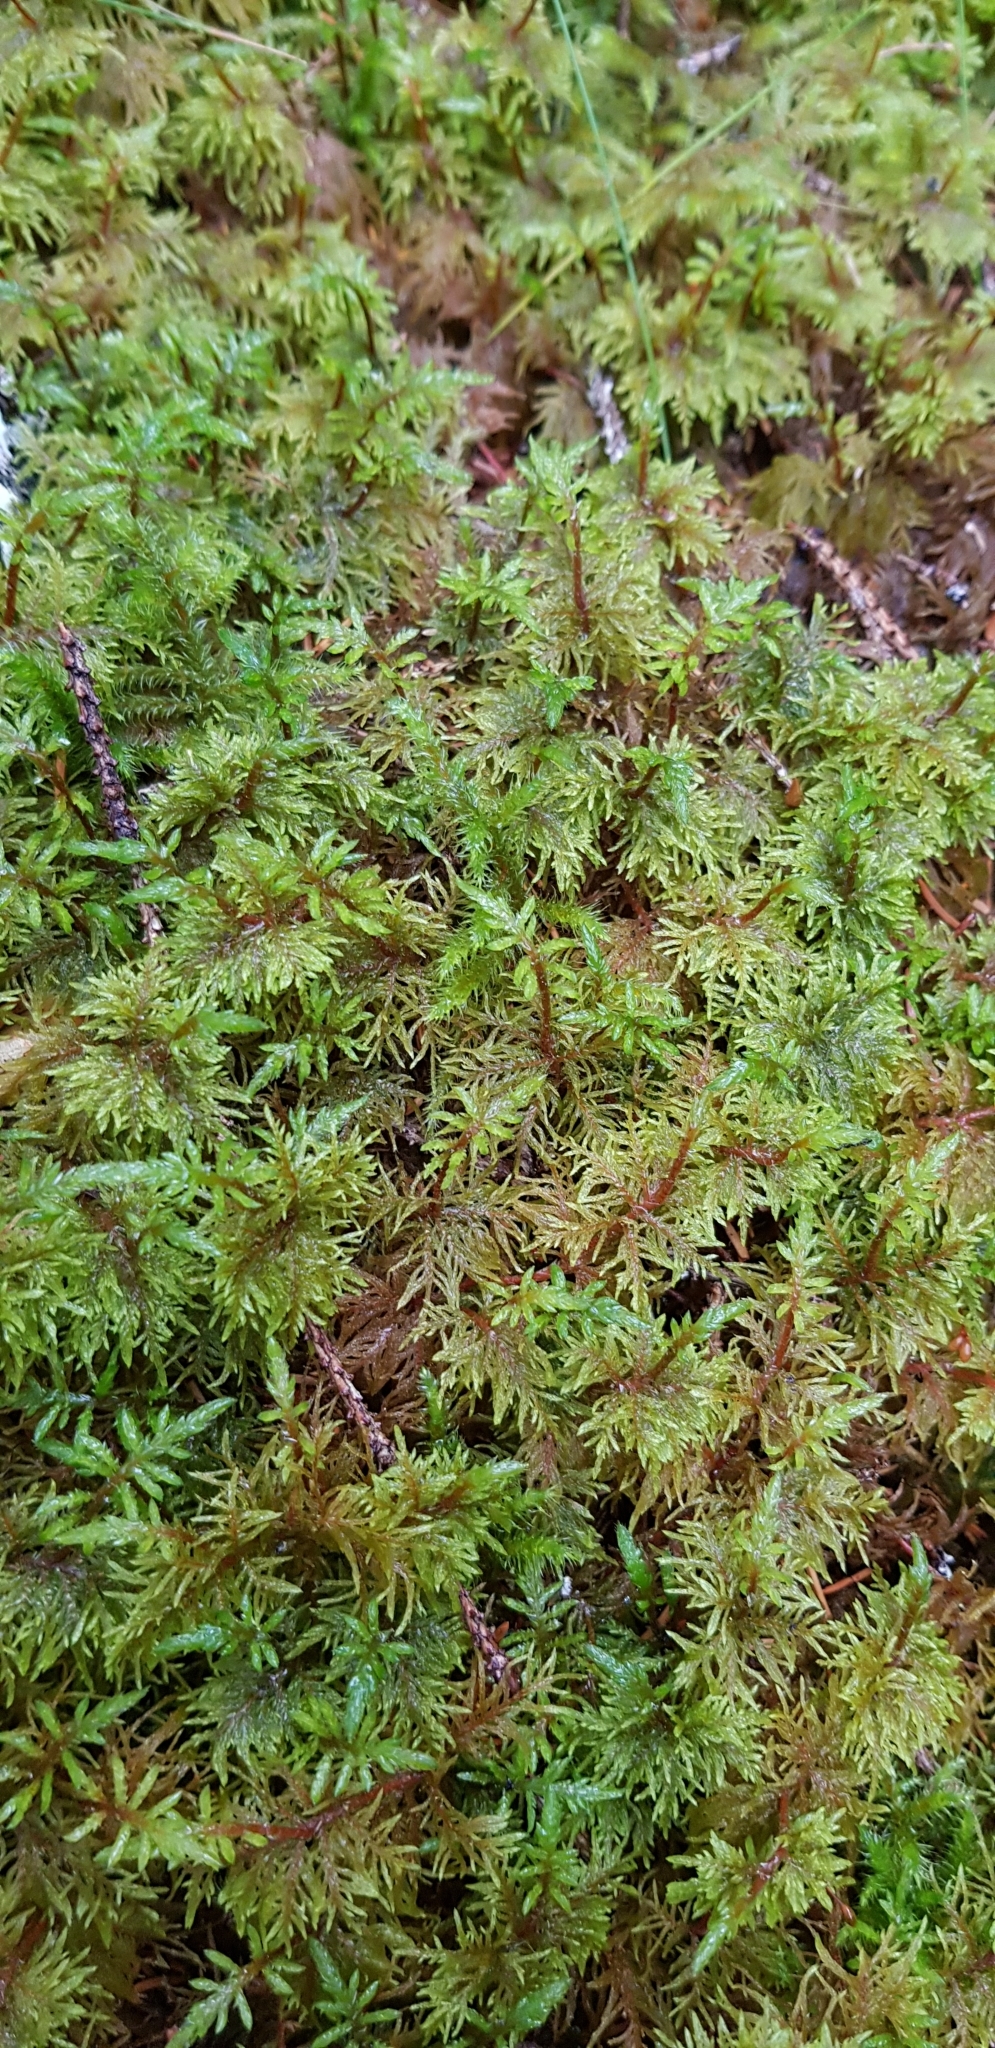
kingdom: Plantae
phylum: Bryophyta
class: Bryopsida
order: Hypnales
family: Hylocomiaceae
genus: Hylocomium
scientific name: Hylocomium splendens
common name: Stairstep moss
